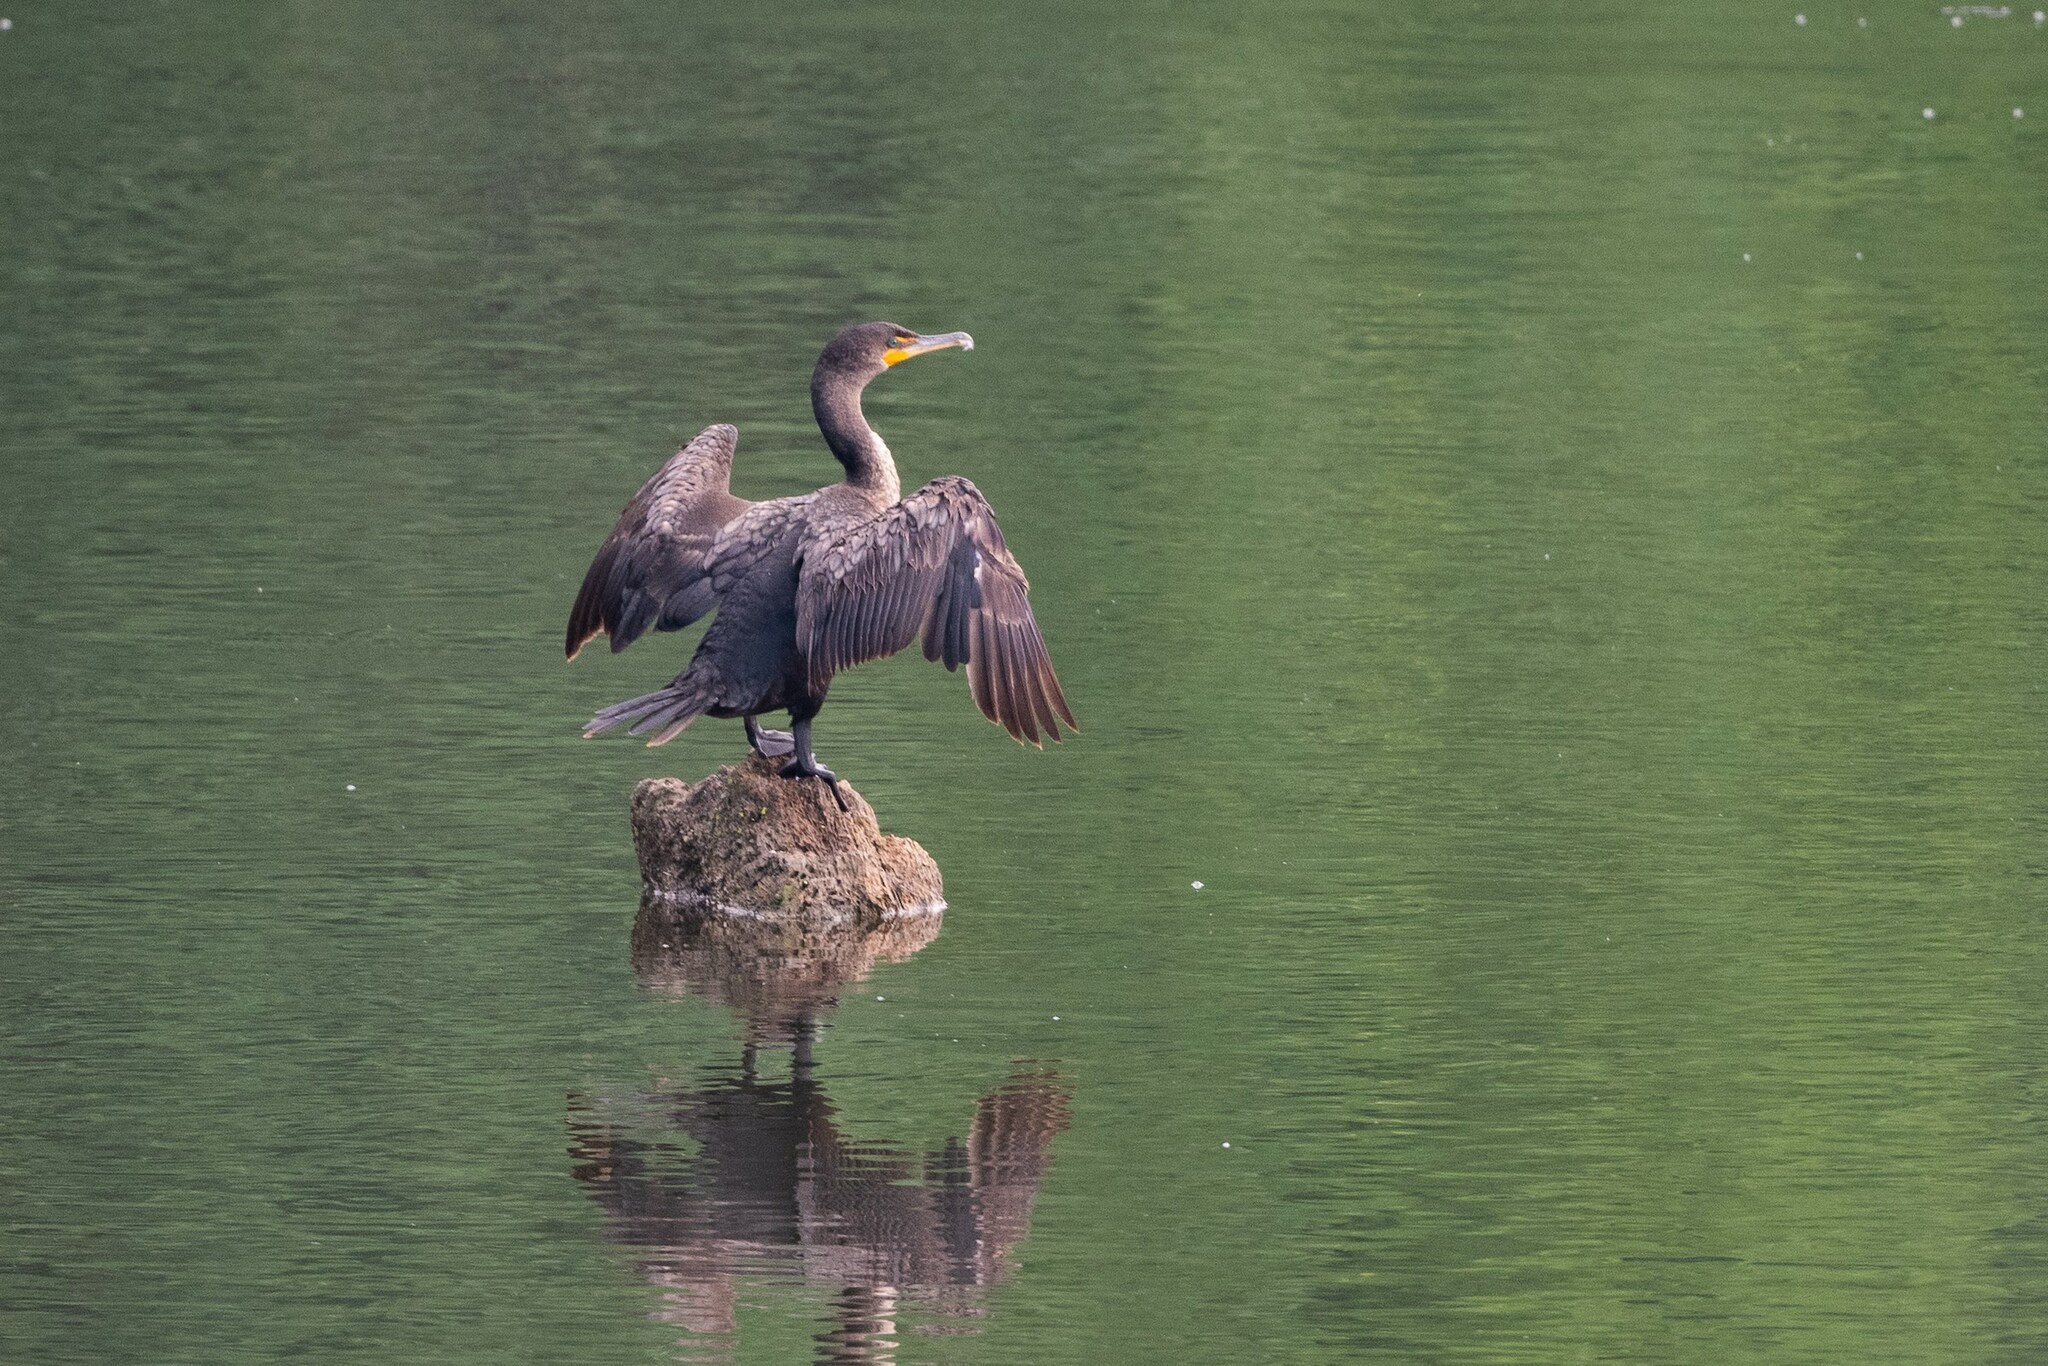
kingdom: Animalia
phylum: Chordata
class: Aves
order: Suliformes
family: Phalacrocoracidae
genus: Phalacrocorax
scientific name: Phalacrocorax auritus
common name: Double-crested cormorant
